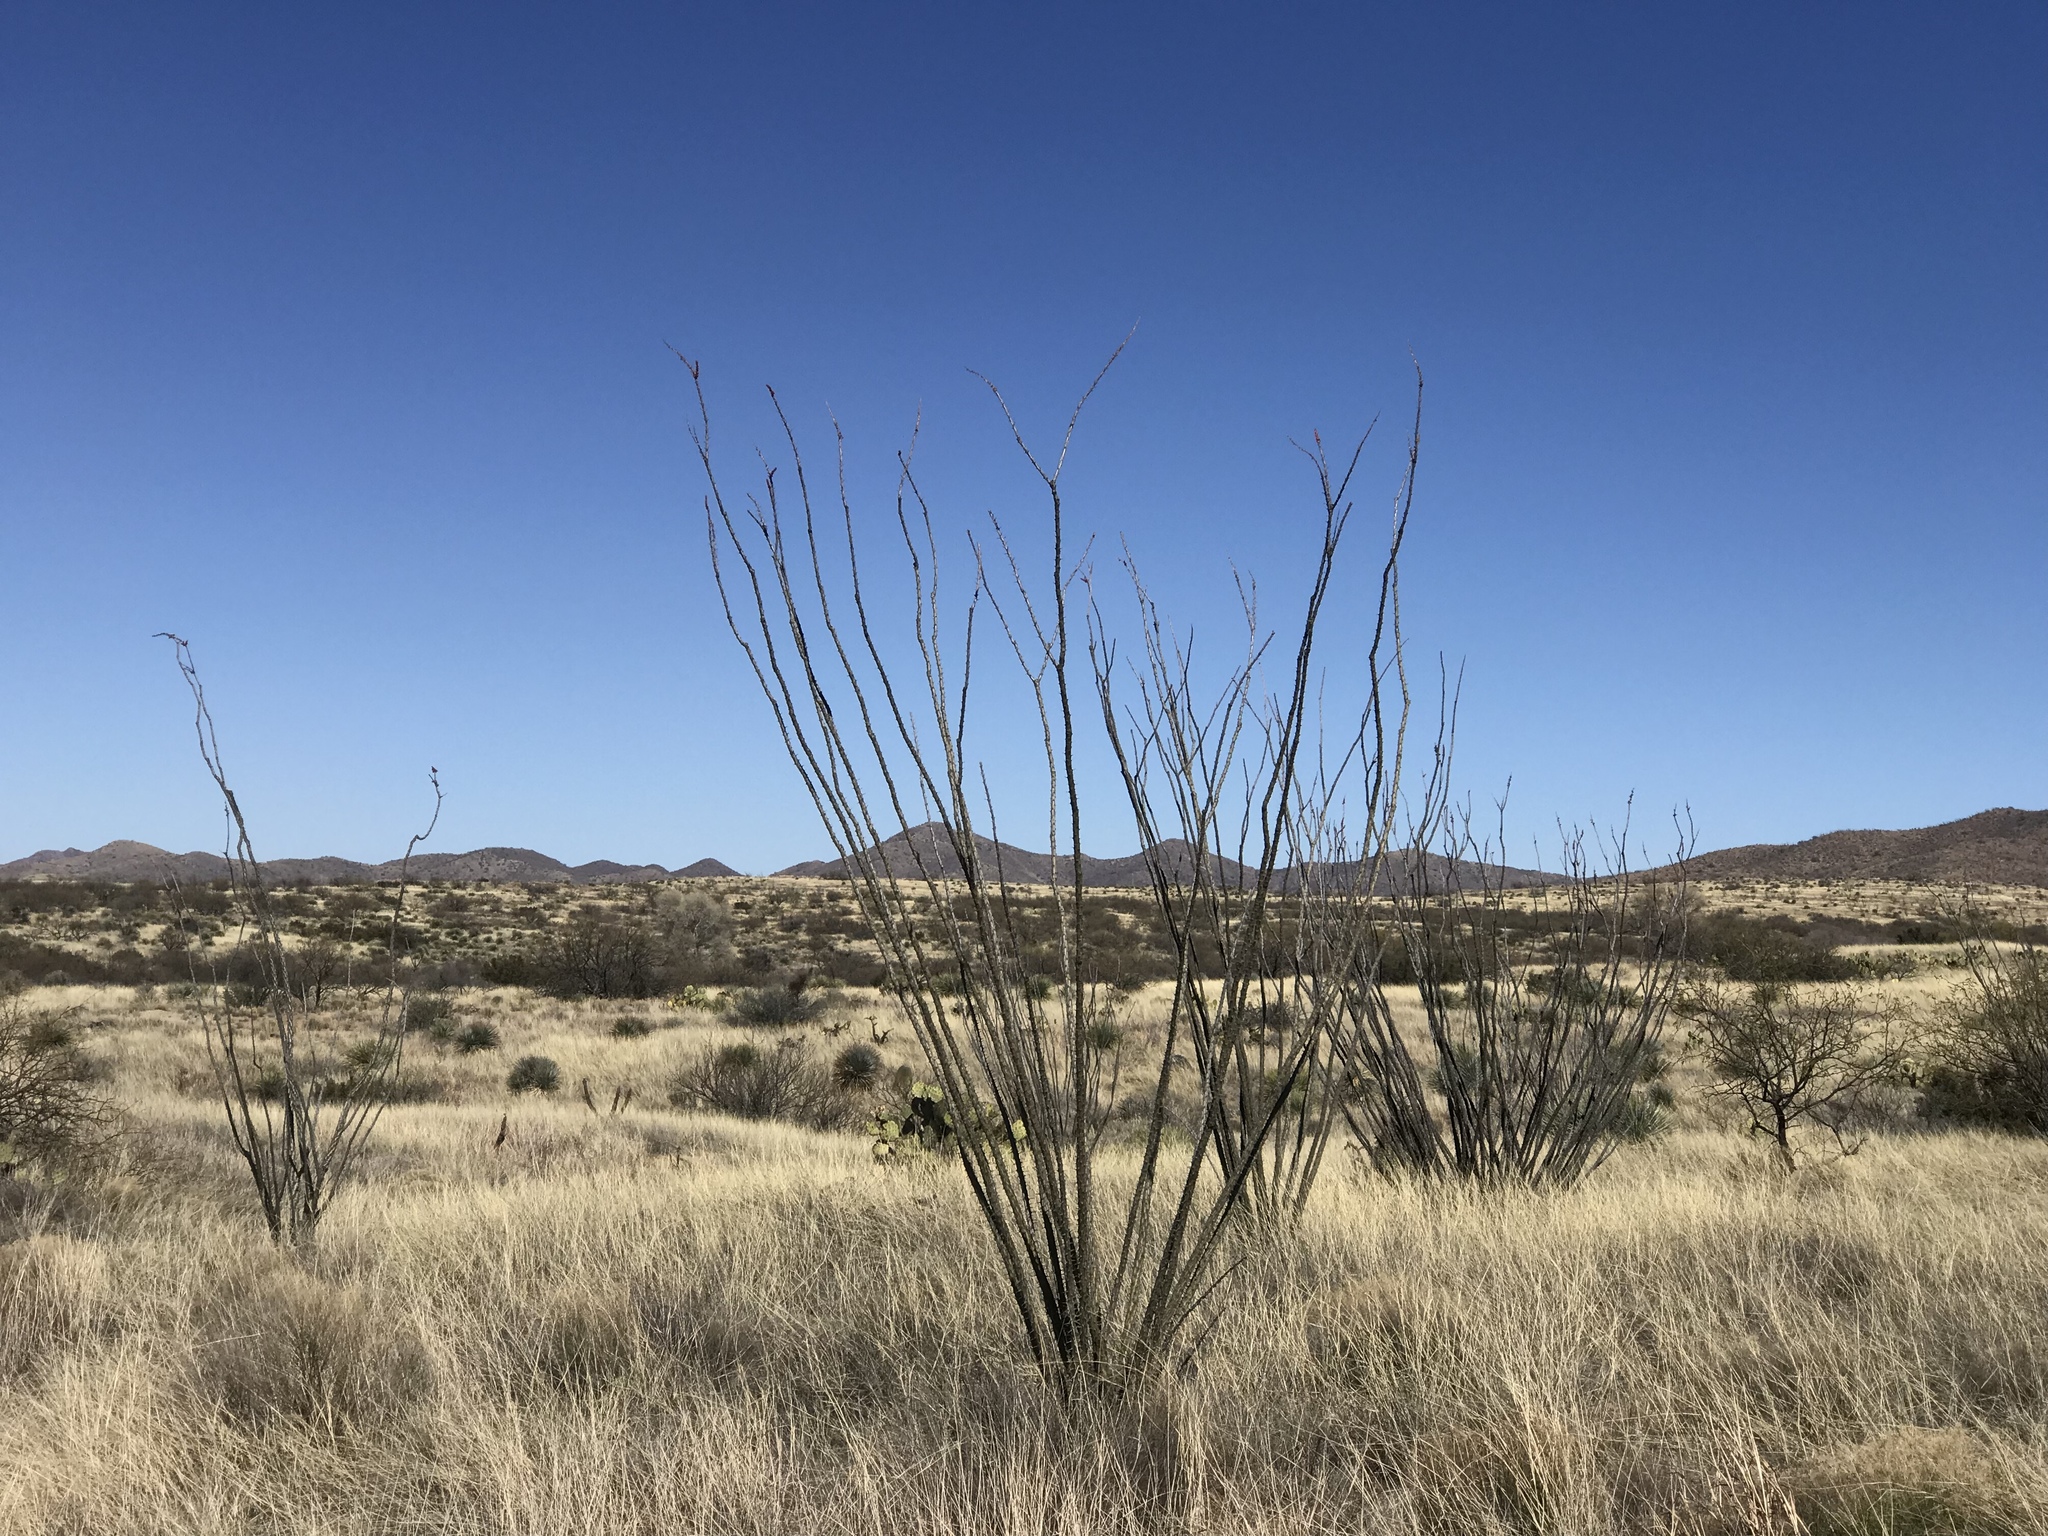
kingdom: Plantae
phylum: Tracheophyta
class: Magnoliopsida
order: Ericales
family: Fouquieriaceae
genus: Fouquieria
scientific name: Fouquieria splendens
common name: Vine-cactus
